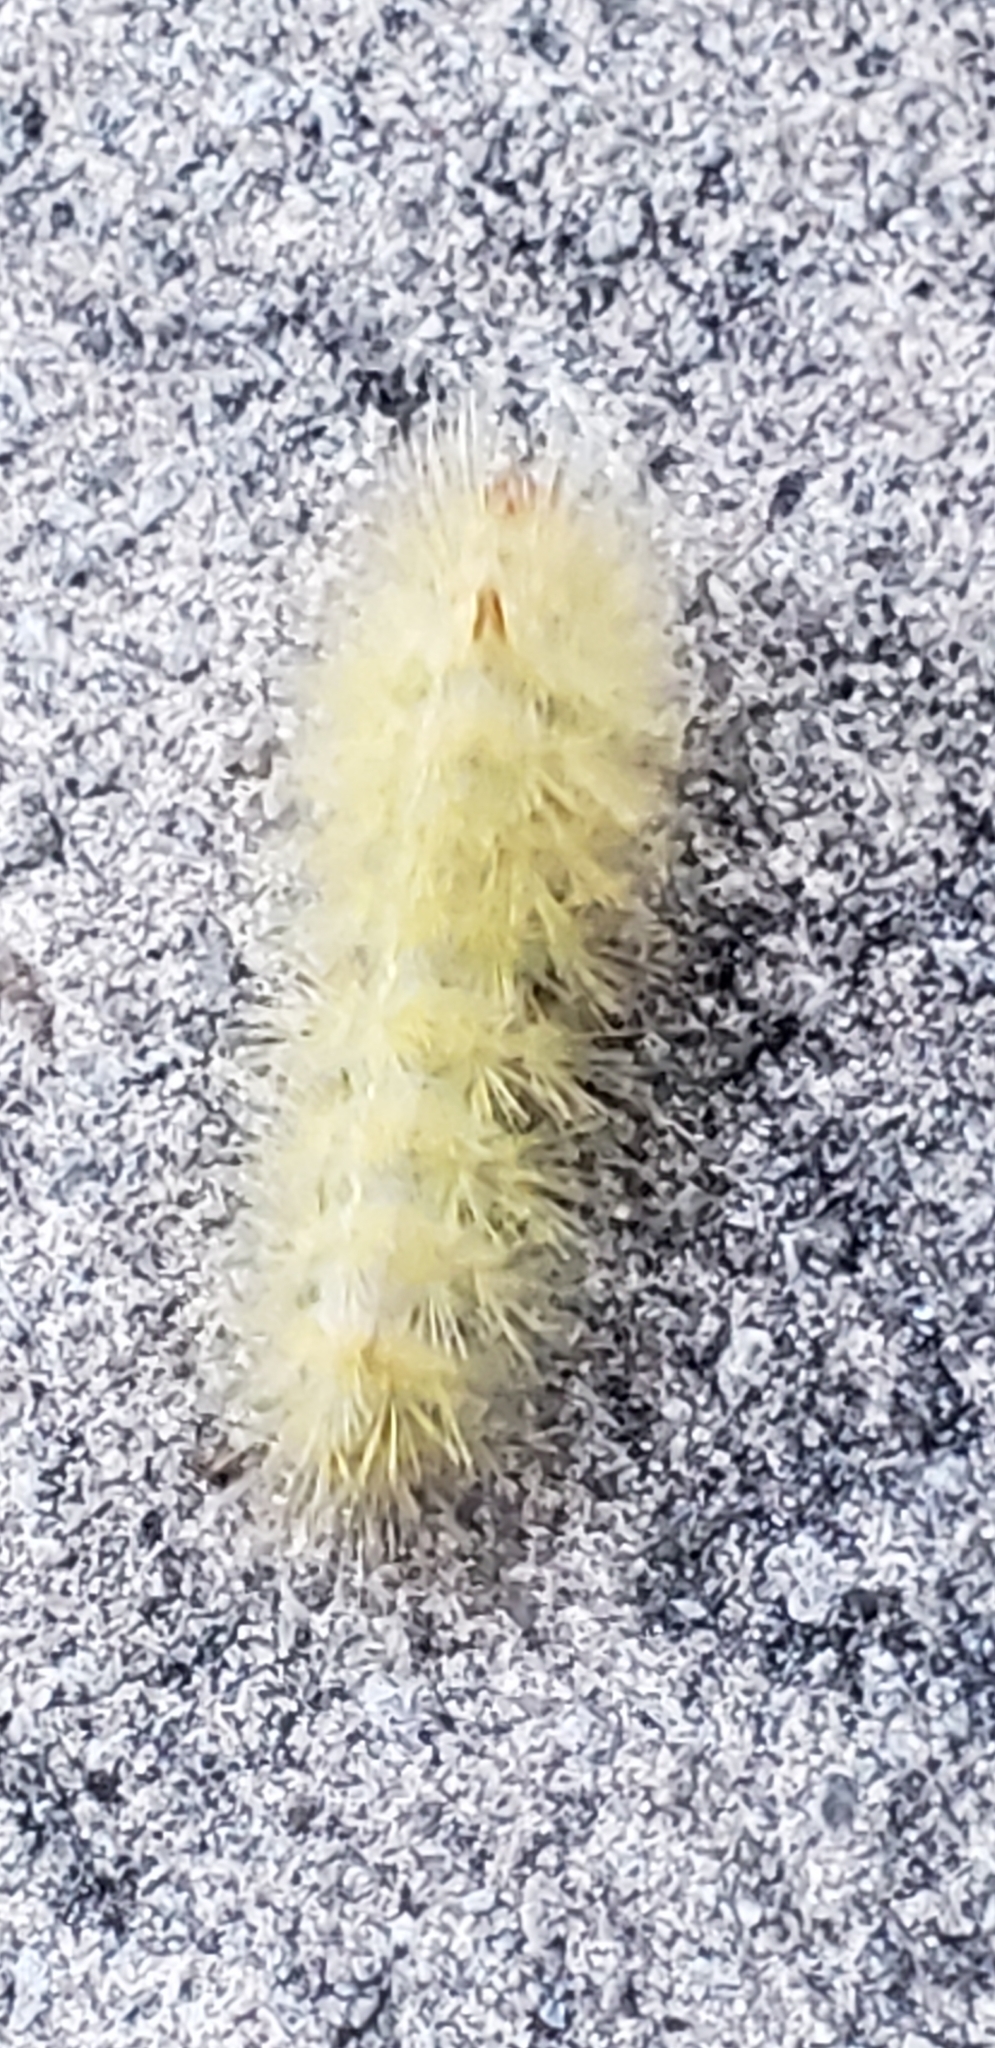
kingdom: Animalia
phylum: Arthropoda
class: Insecta
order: Lepidoptera
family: Erebidae
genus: Lymire
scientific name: Lymire edwardsii
